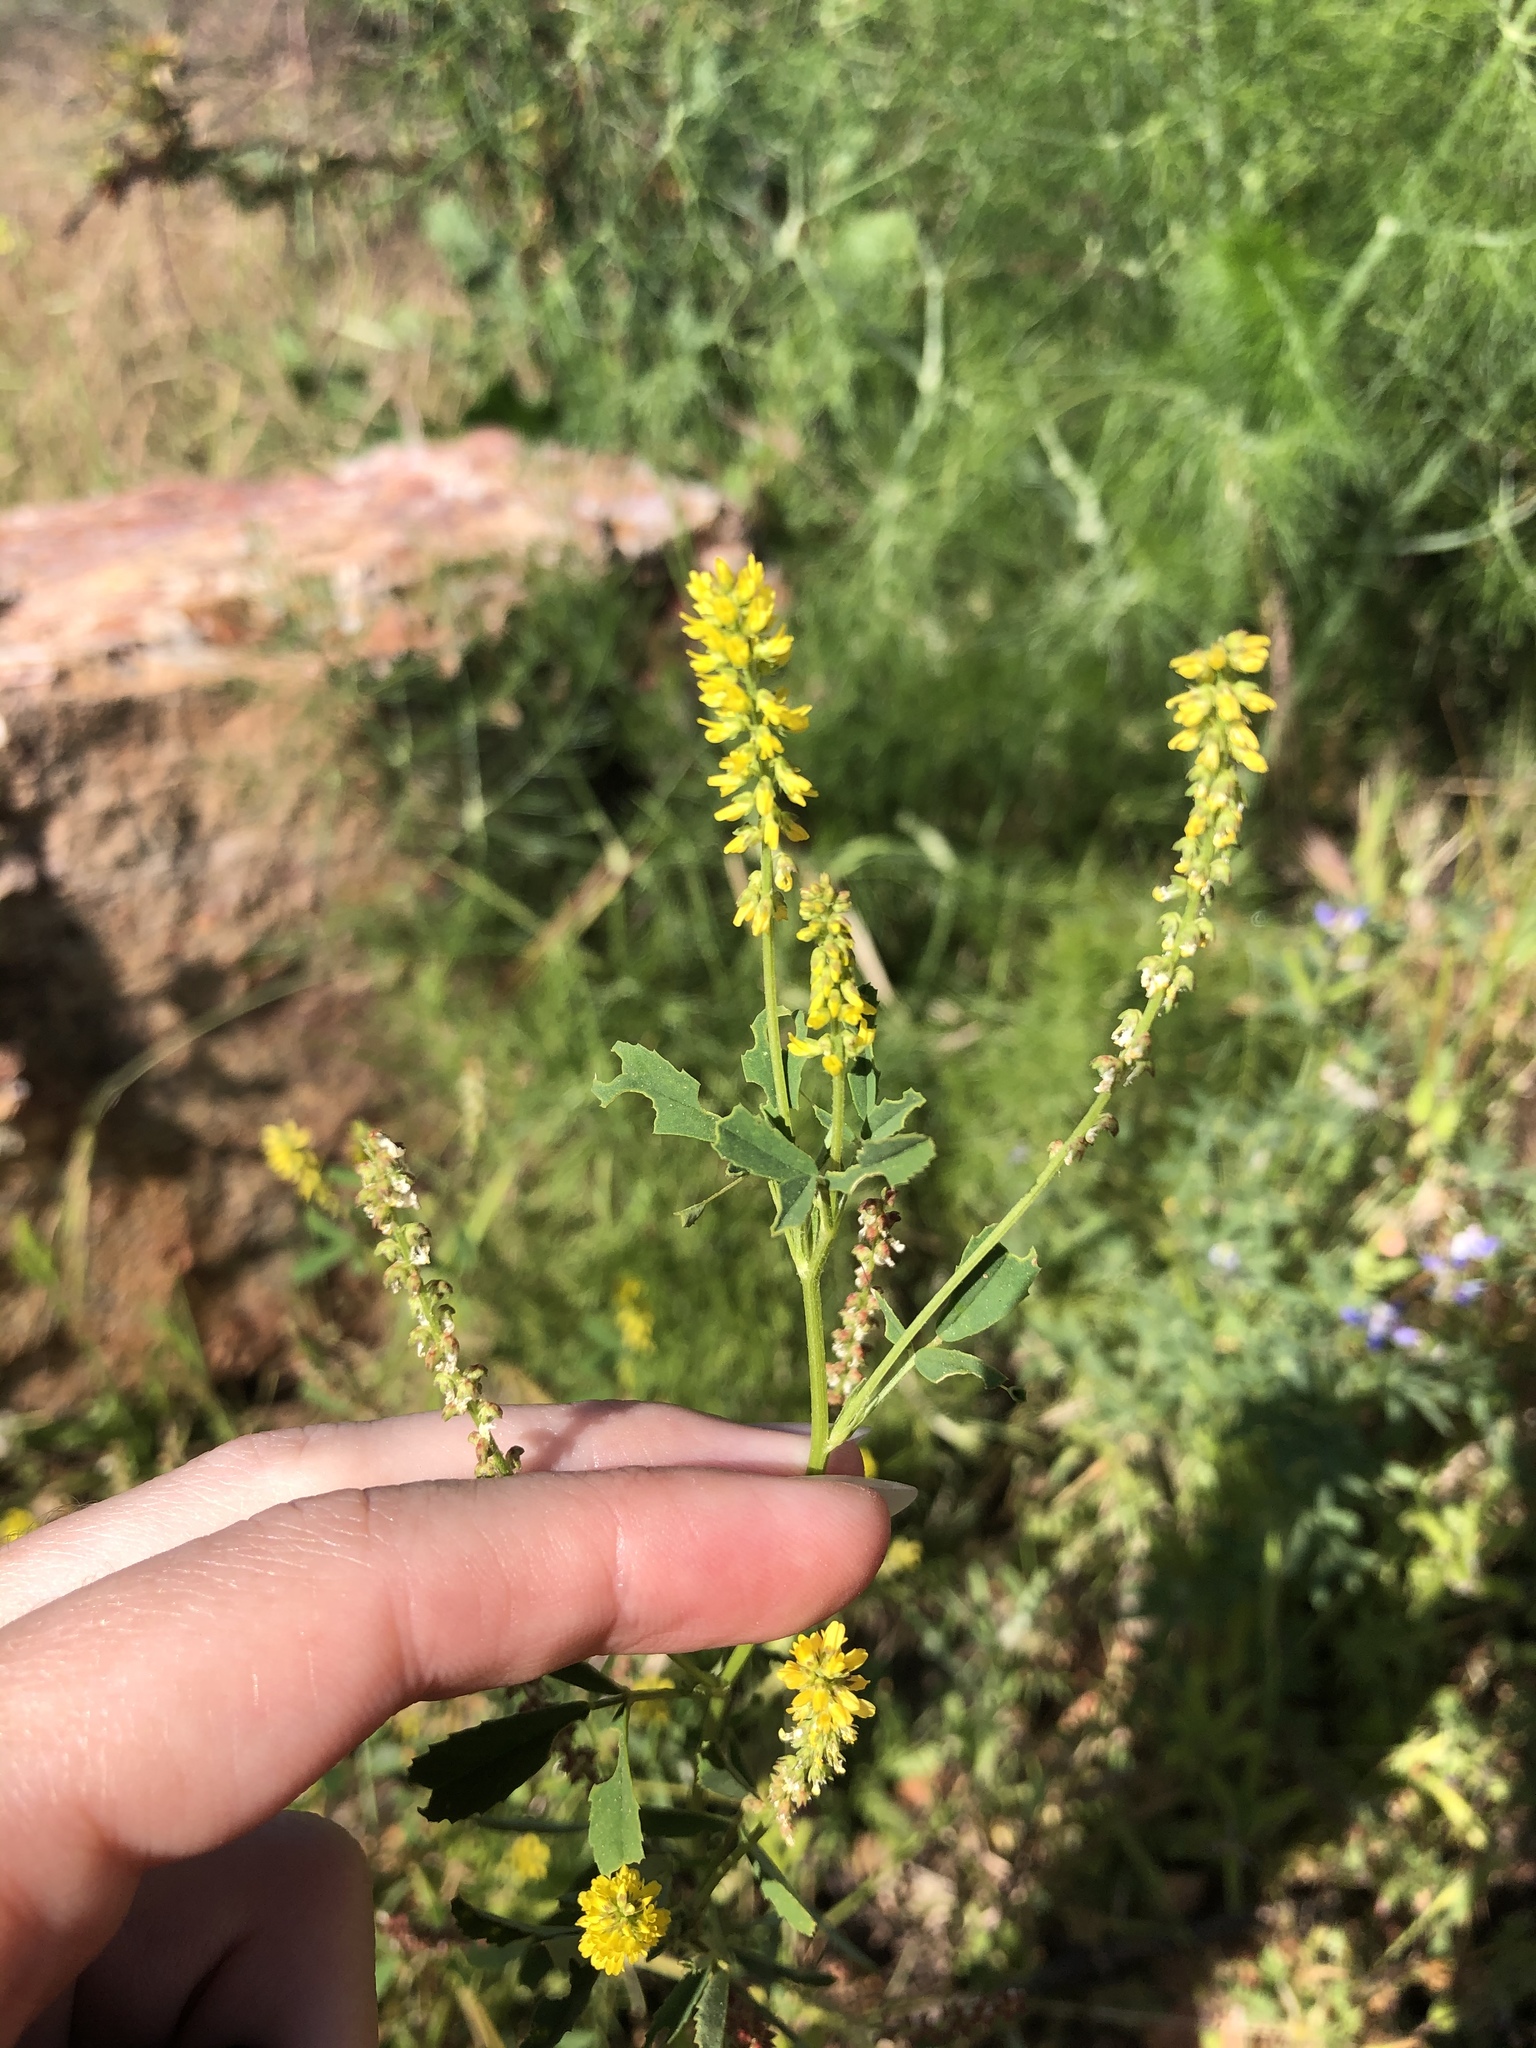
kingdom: Plantae
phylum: Tracheophyta
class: Magnoliopsida
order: Fabales
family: Fabaceae
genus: Melilotus
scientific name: Melilotus indicus
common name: Small melilot
